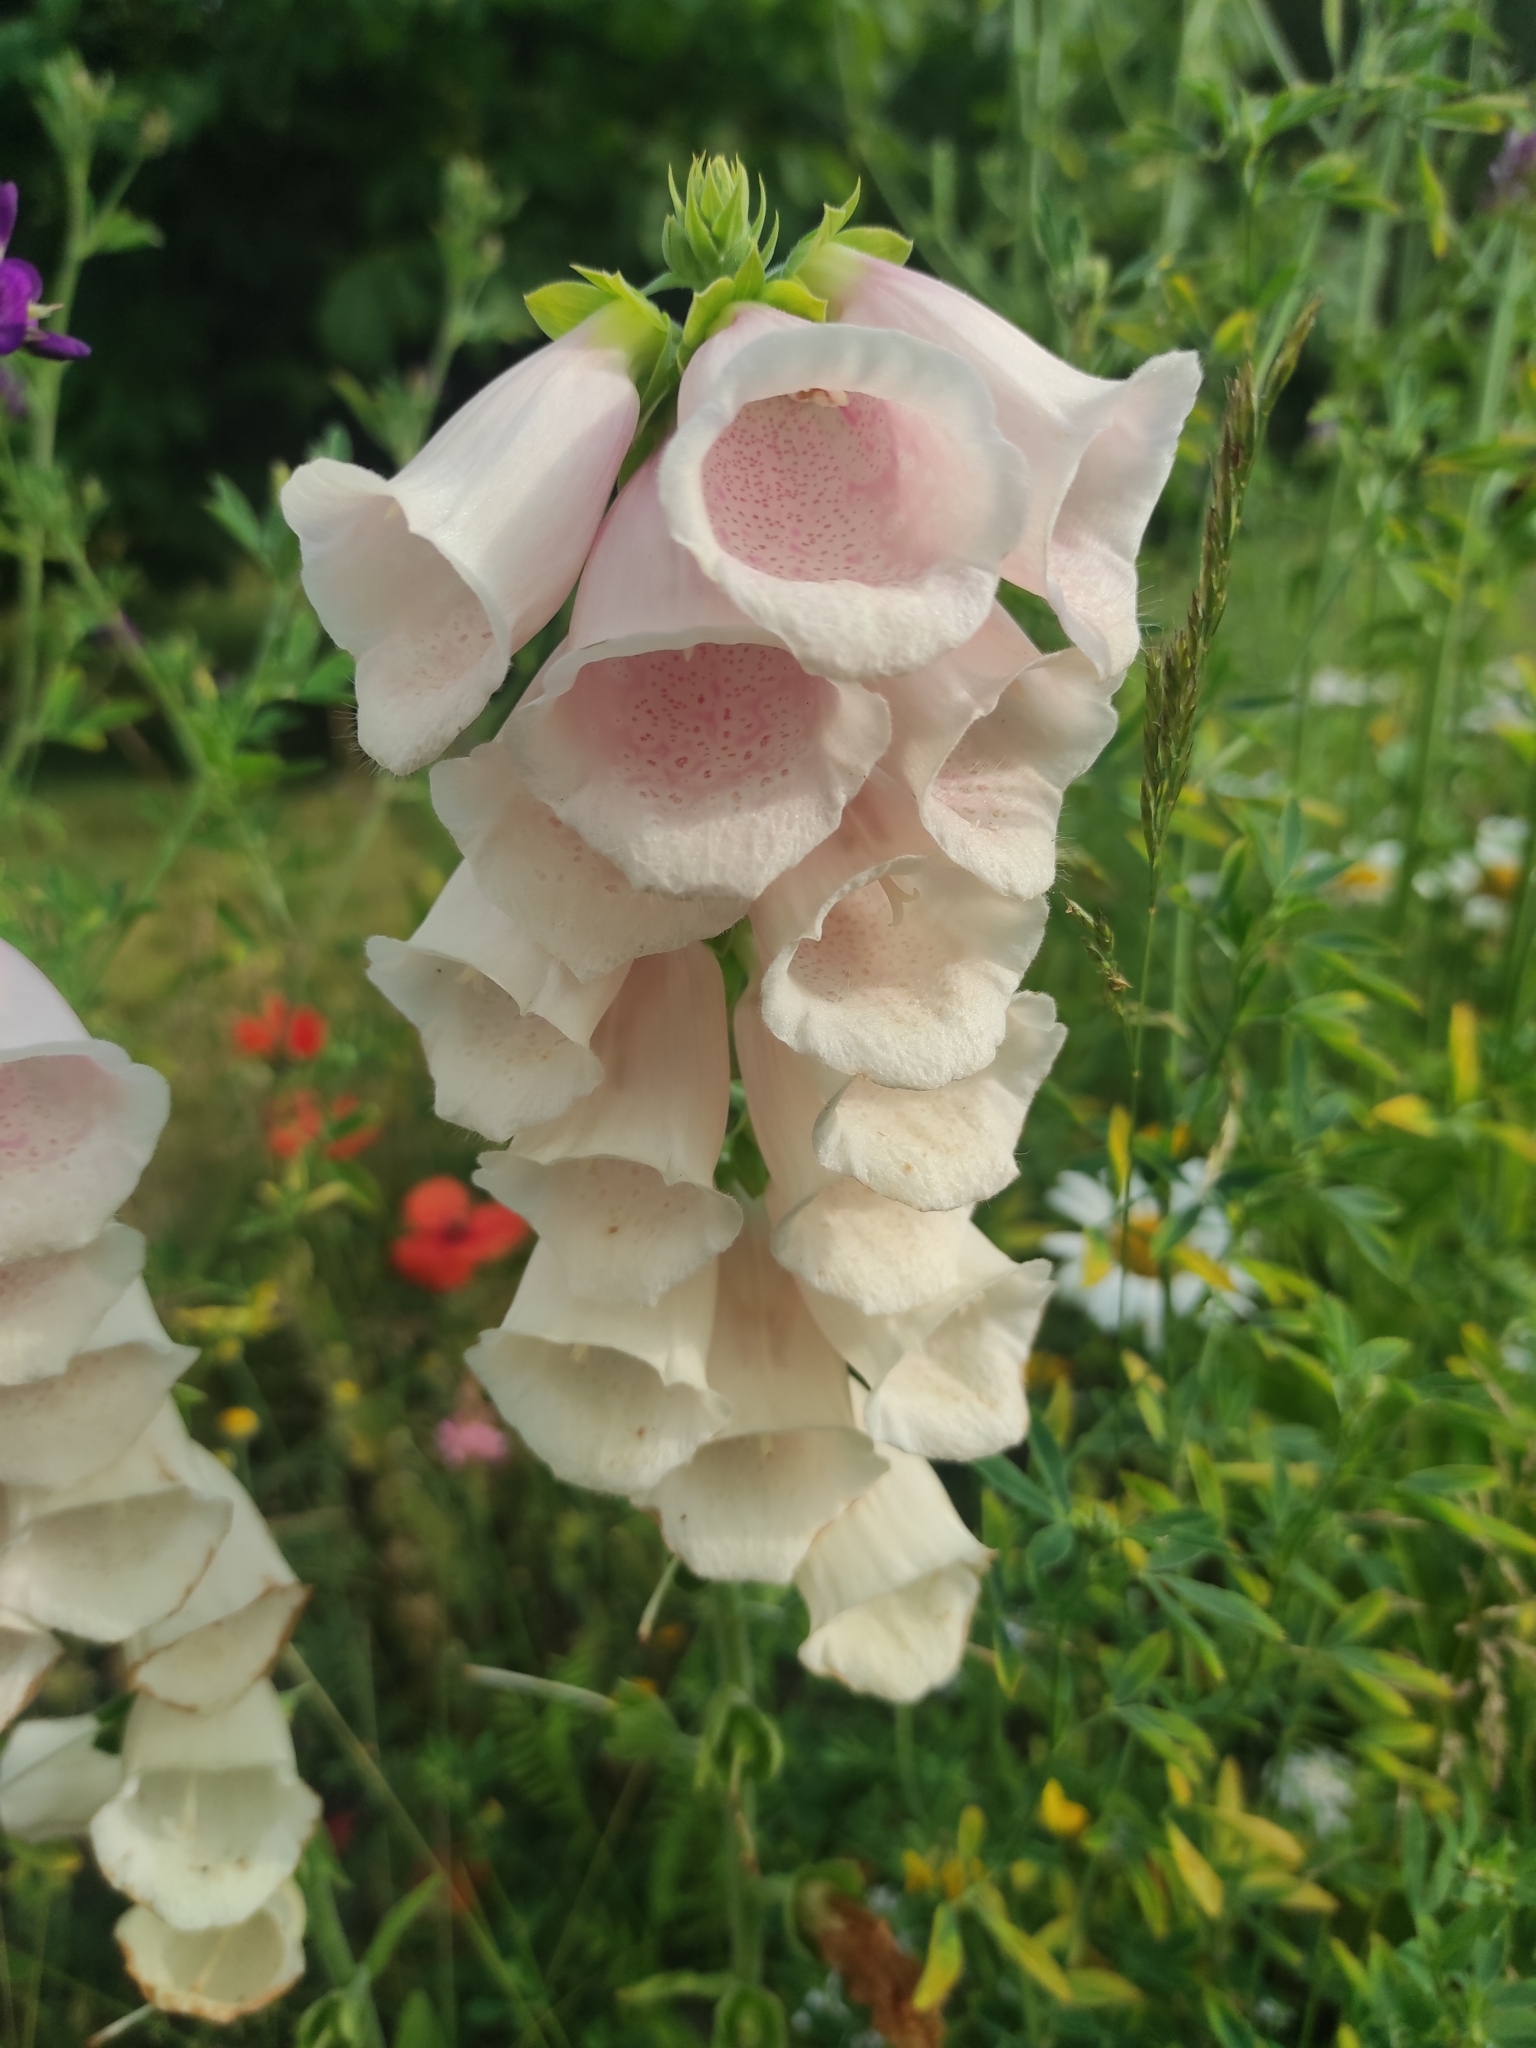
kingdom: Plantae
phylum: Tracheophyta
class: Magnoliopsida
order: Lamiales
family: Plantaginaceae
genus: Digitalis
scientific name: Digitalis purpurea
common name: Foxglove
